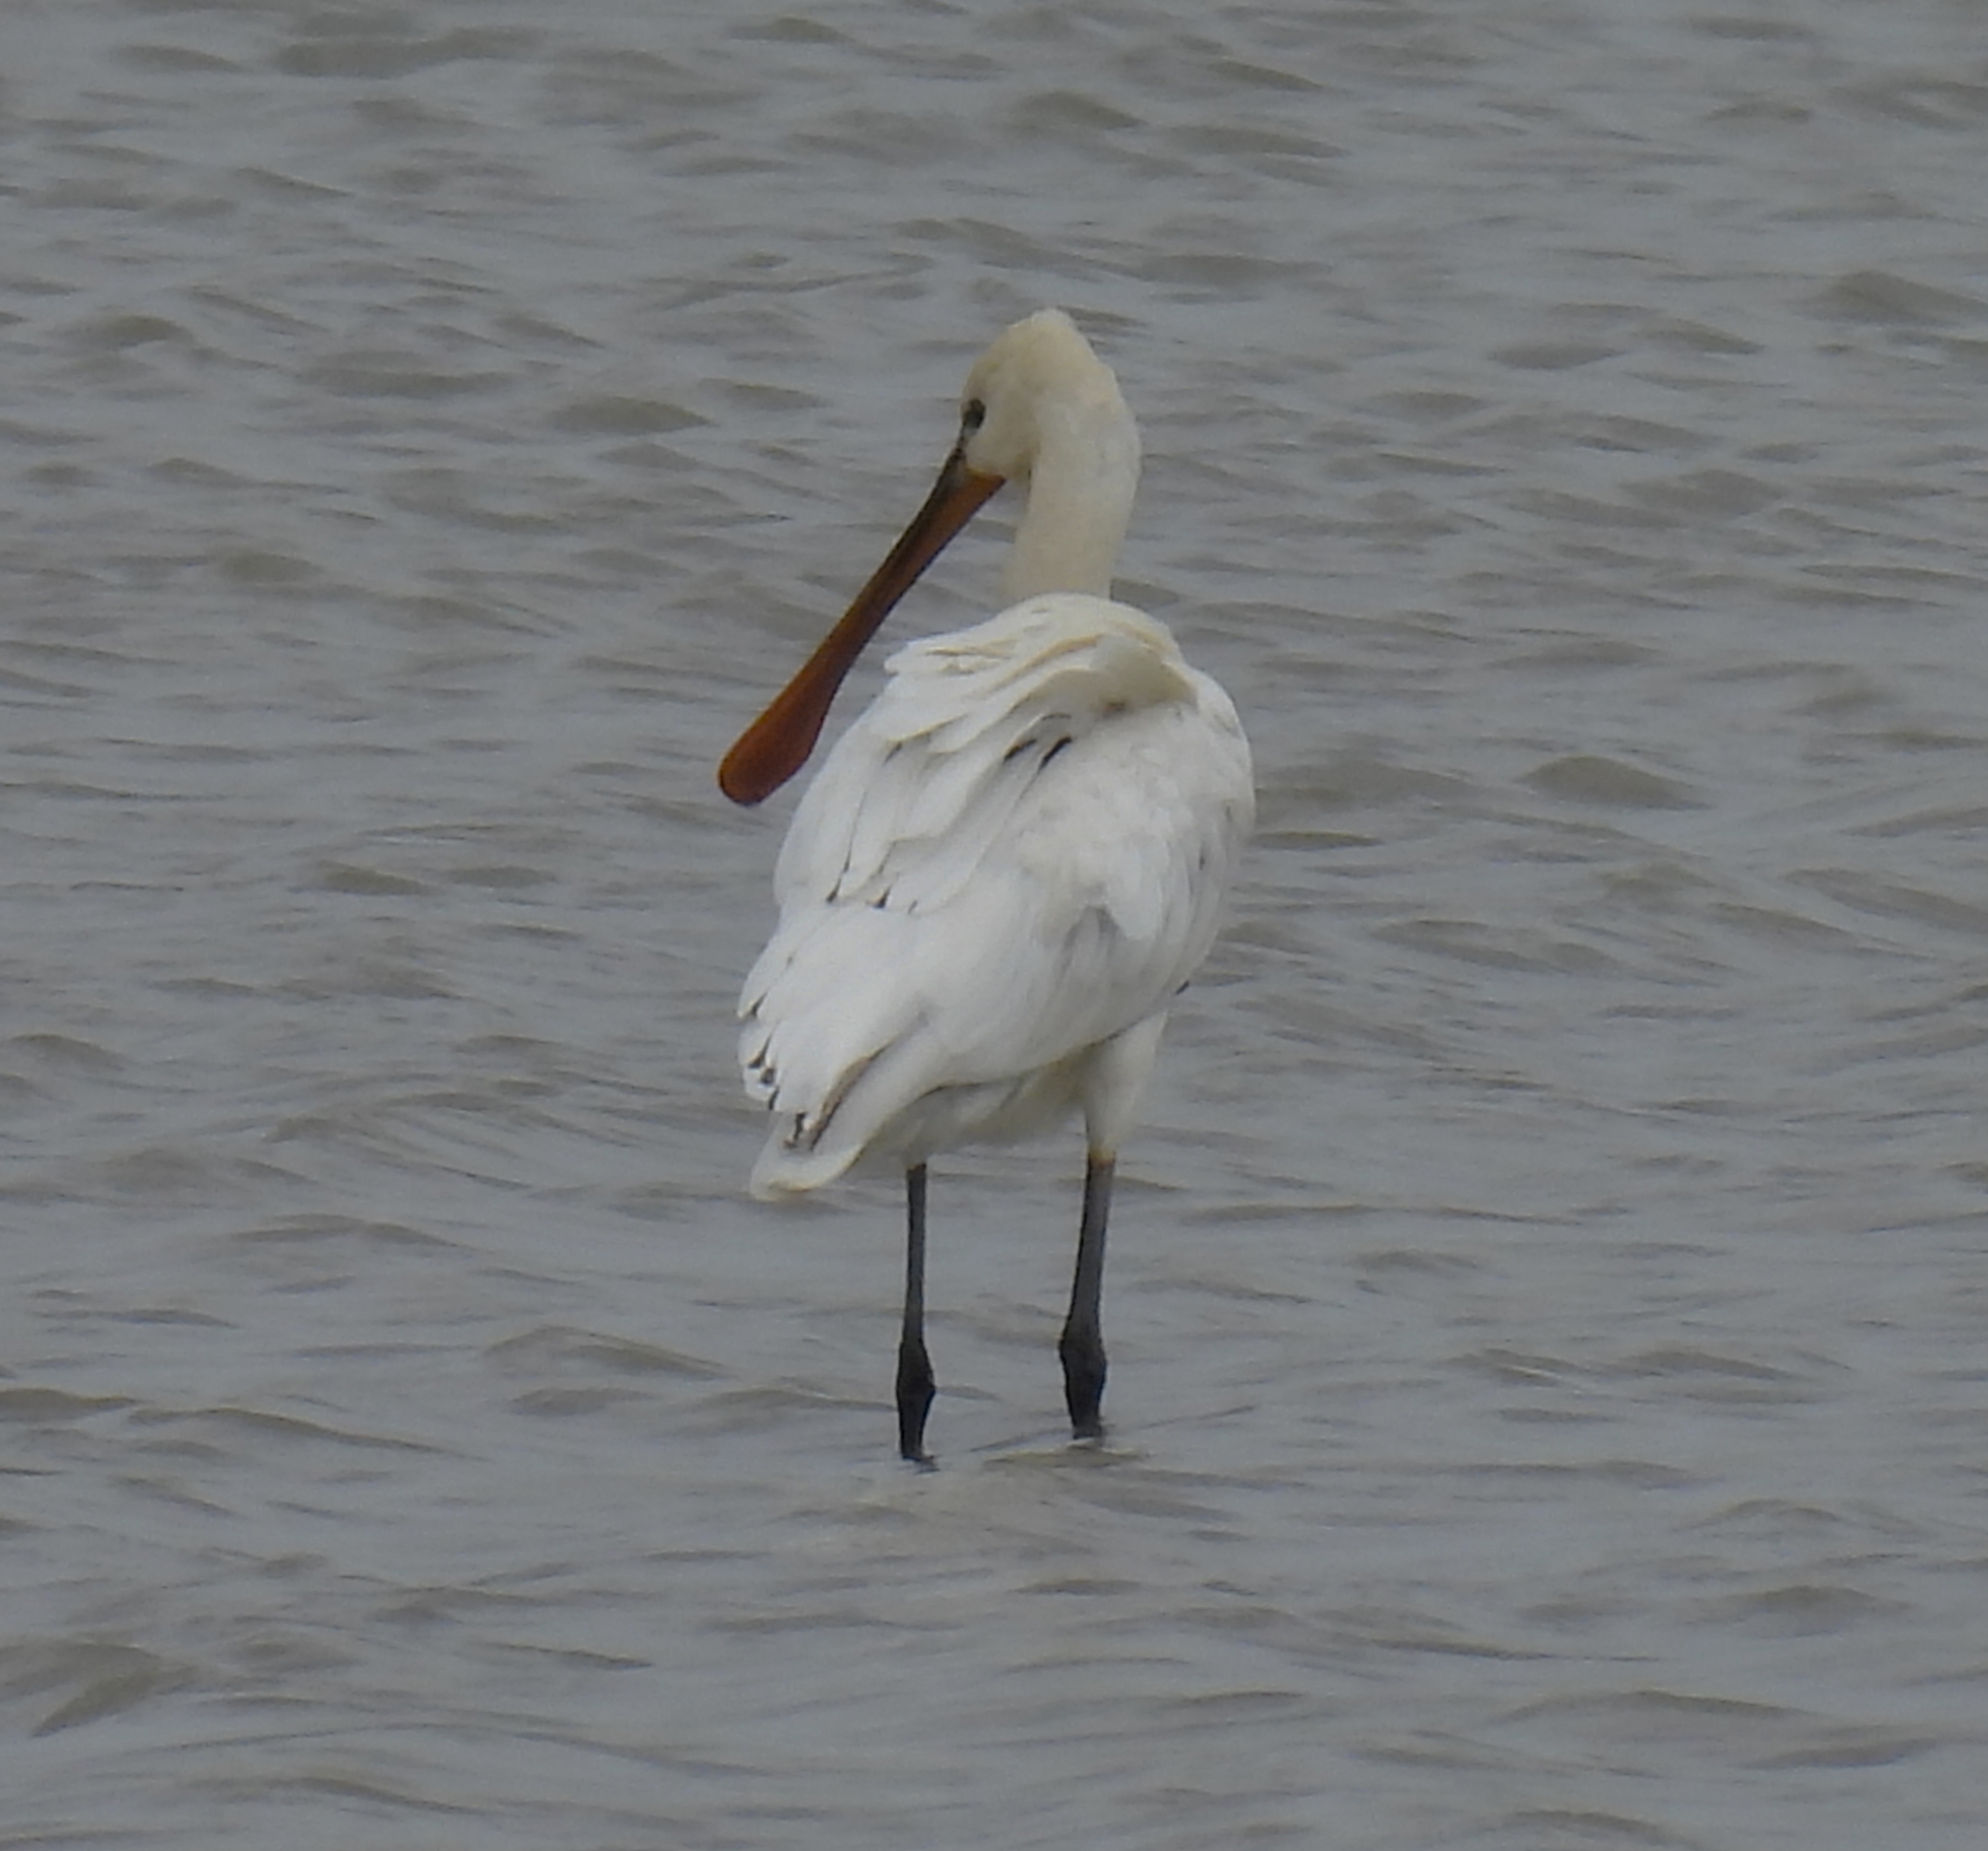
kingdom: Animalia
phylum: Chordata
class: Aves
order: Pelecaniformes
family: Threskiornithidae
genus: Platalea
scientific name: Platalea leucorodia
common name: Eurasian spoonbill
